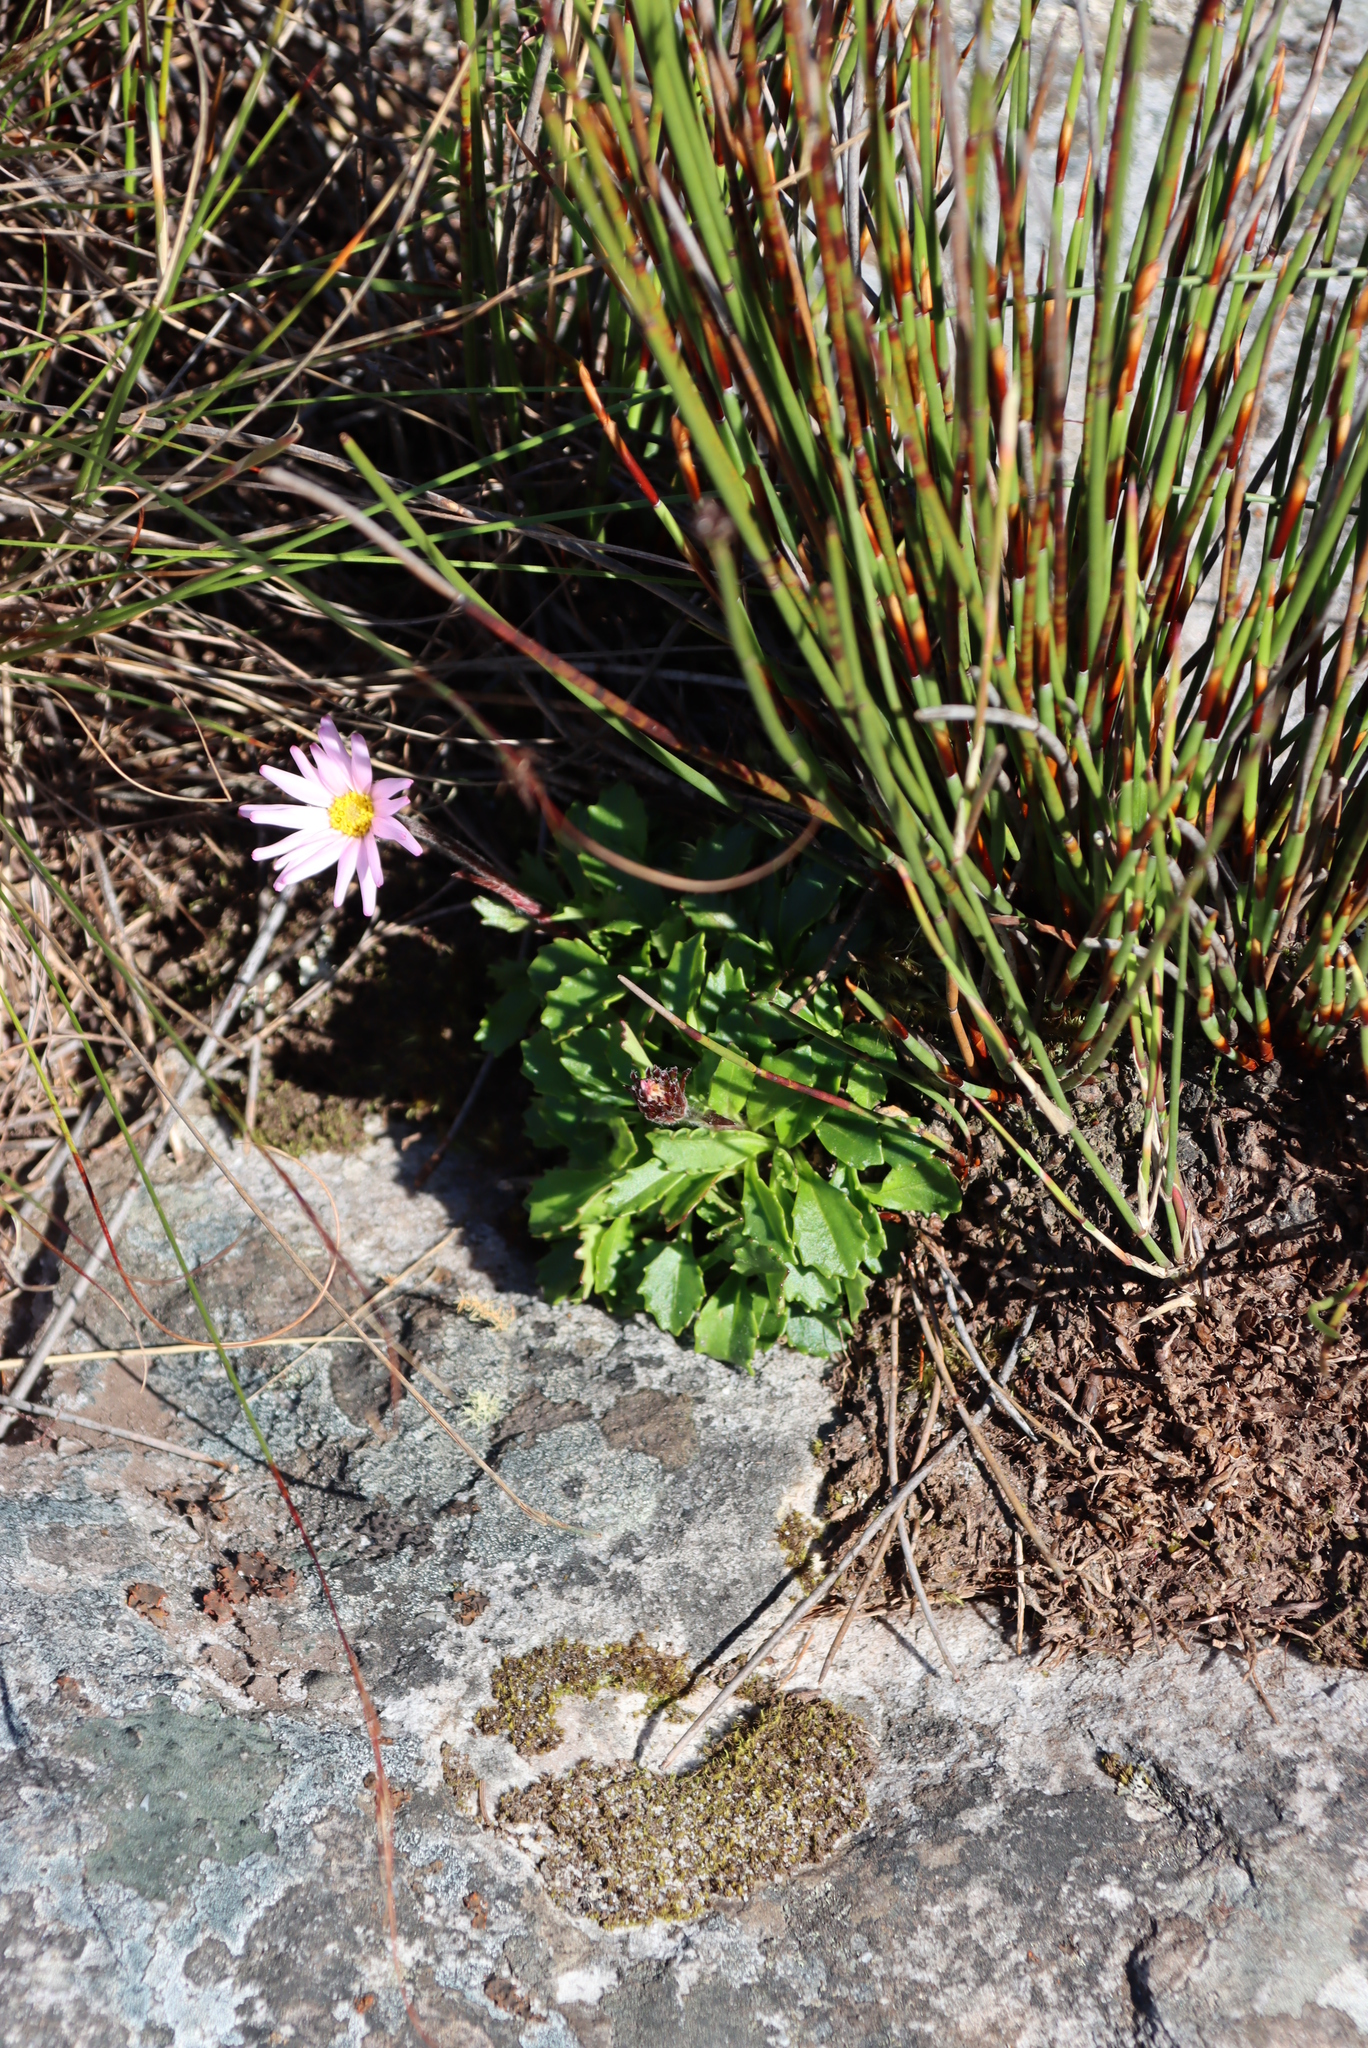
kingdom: Plantae
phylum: Tracheophyta
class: Magnoliopsida
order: Asterales
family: Asteraceae
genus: Zyrphelis
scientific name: Zyrphelis crenata
